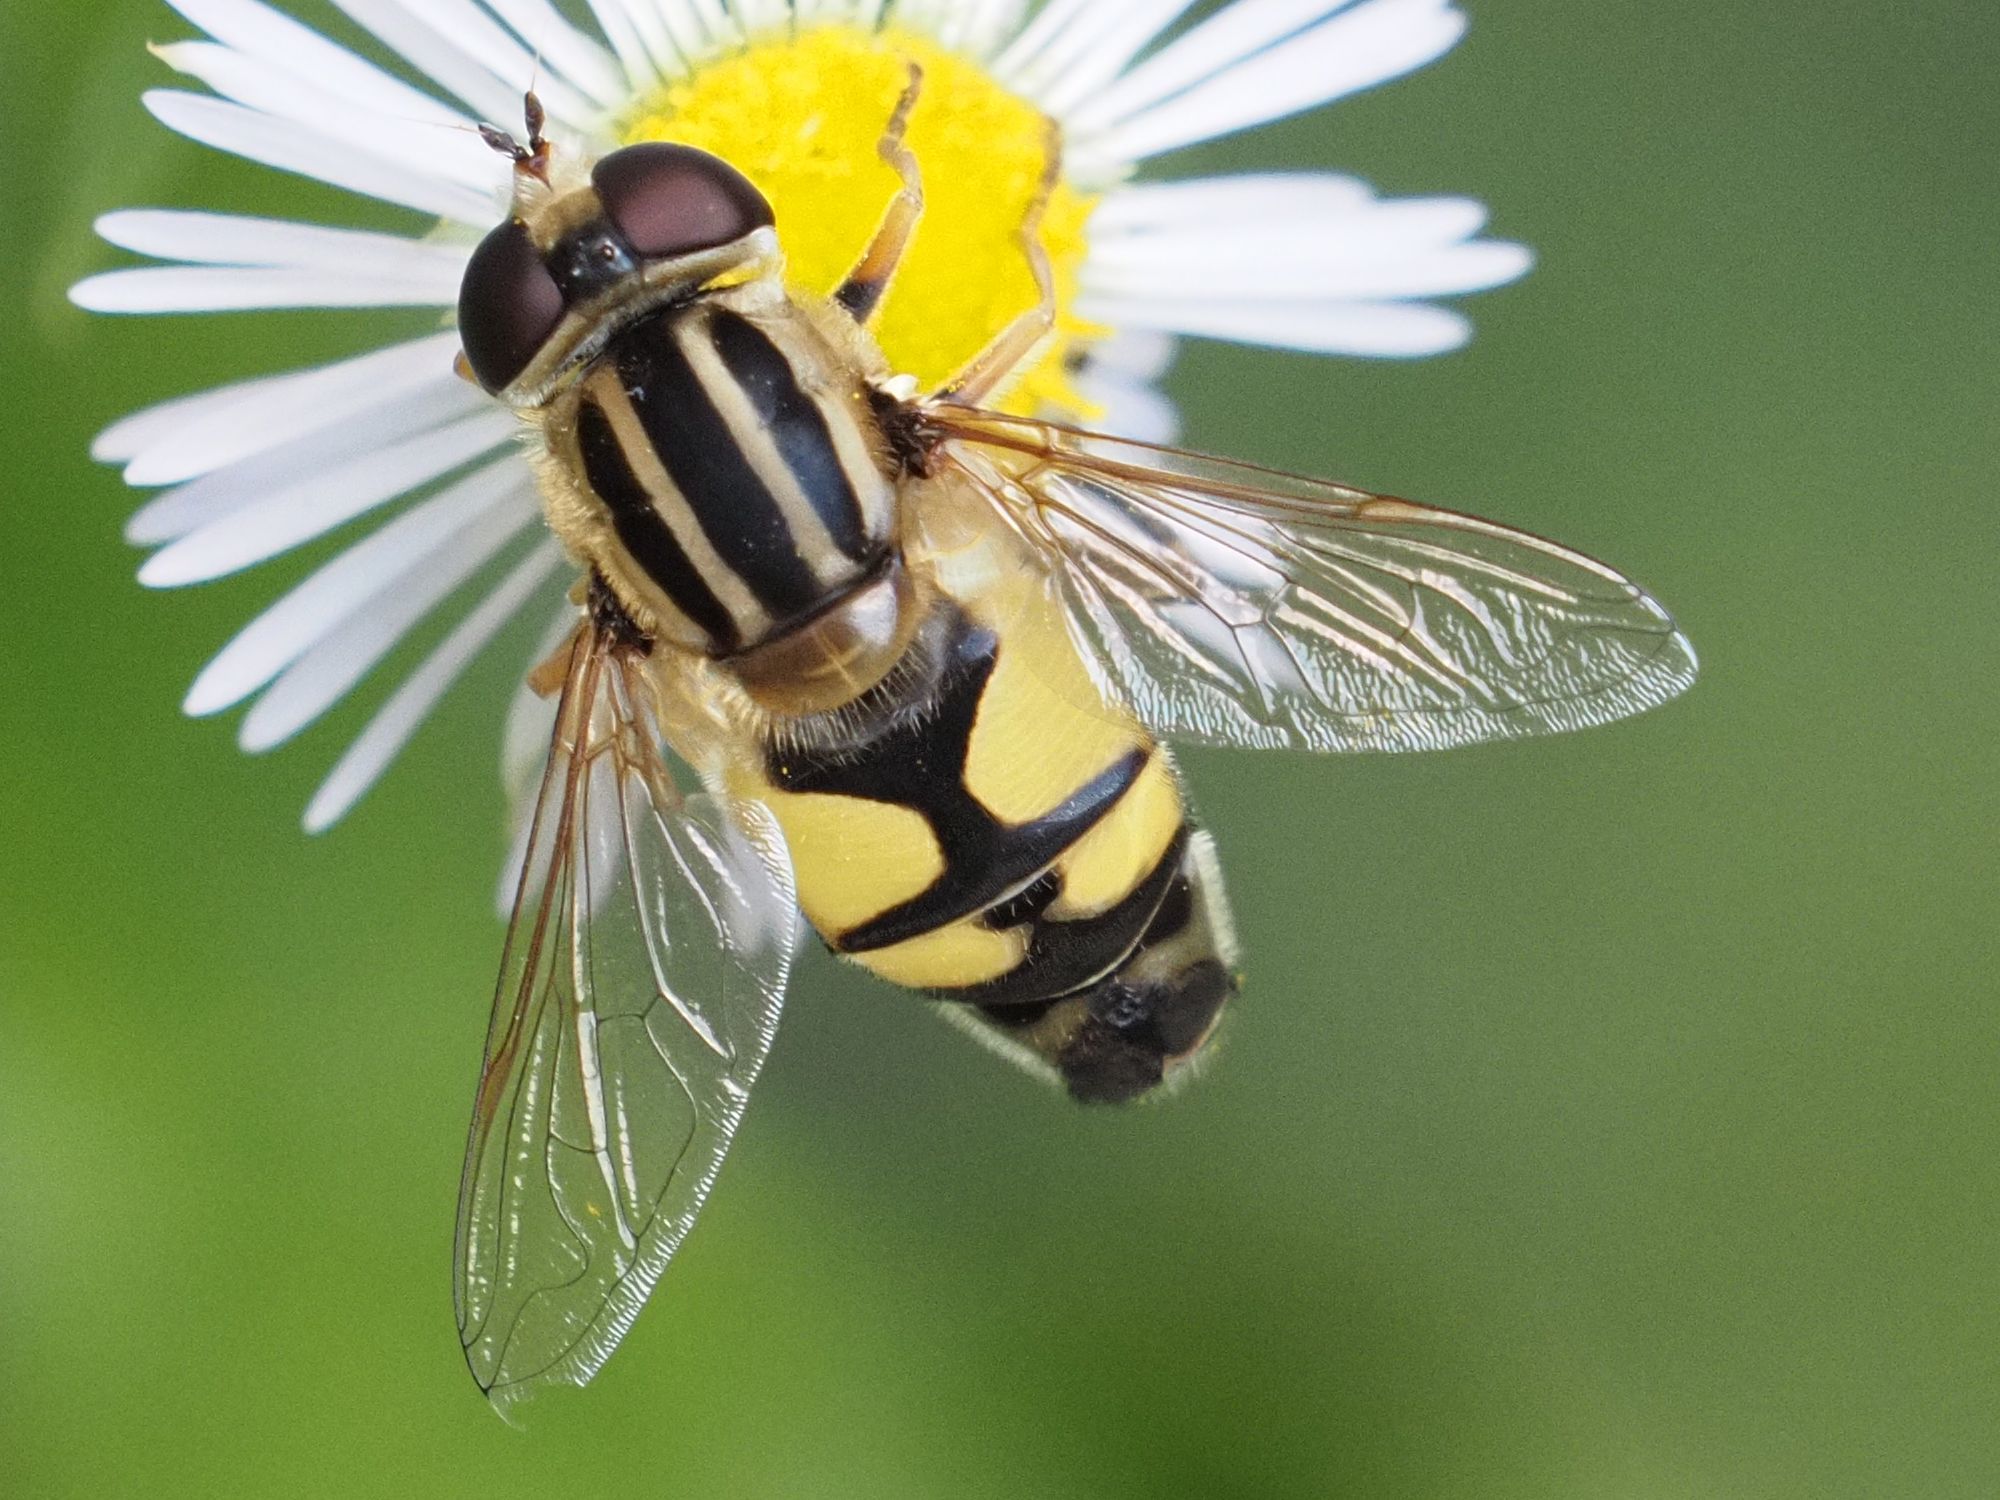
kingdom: Animalia
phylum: Arthropoda
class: Insecta
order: Diptera
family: Syrphidae
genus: Helophilus
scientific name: Helophilus trivittatus
